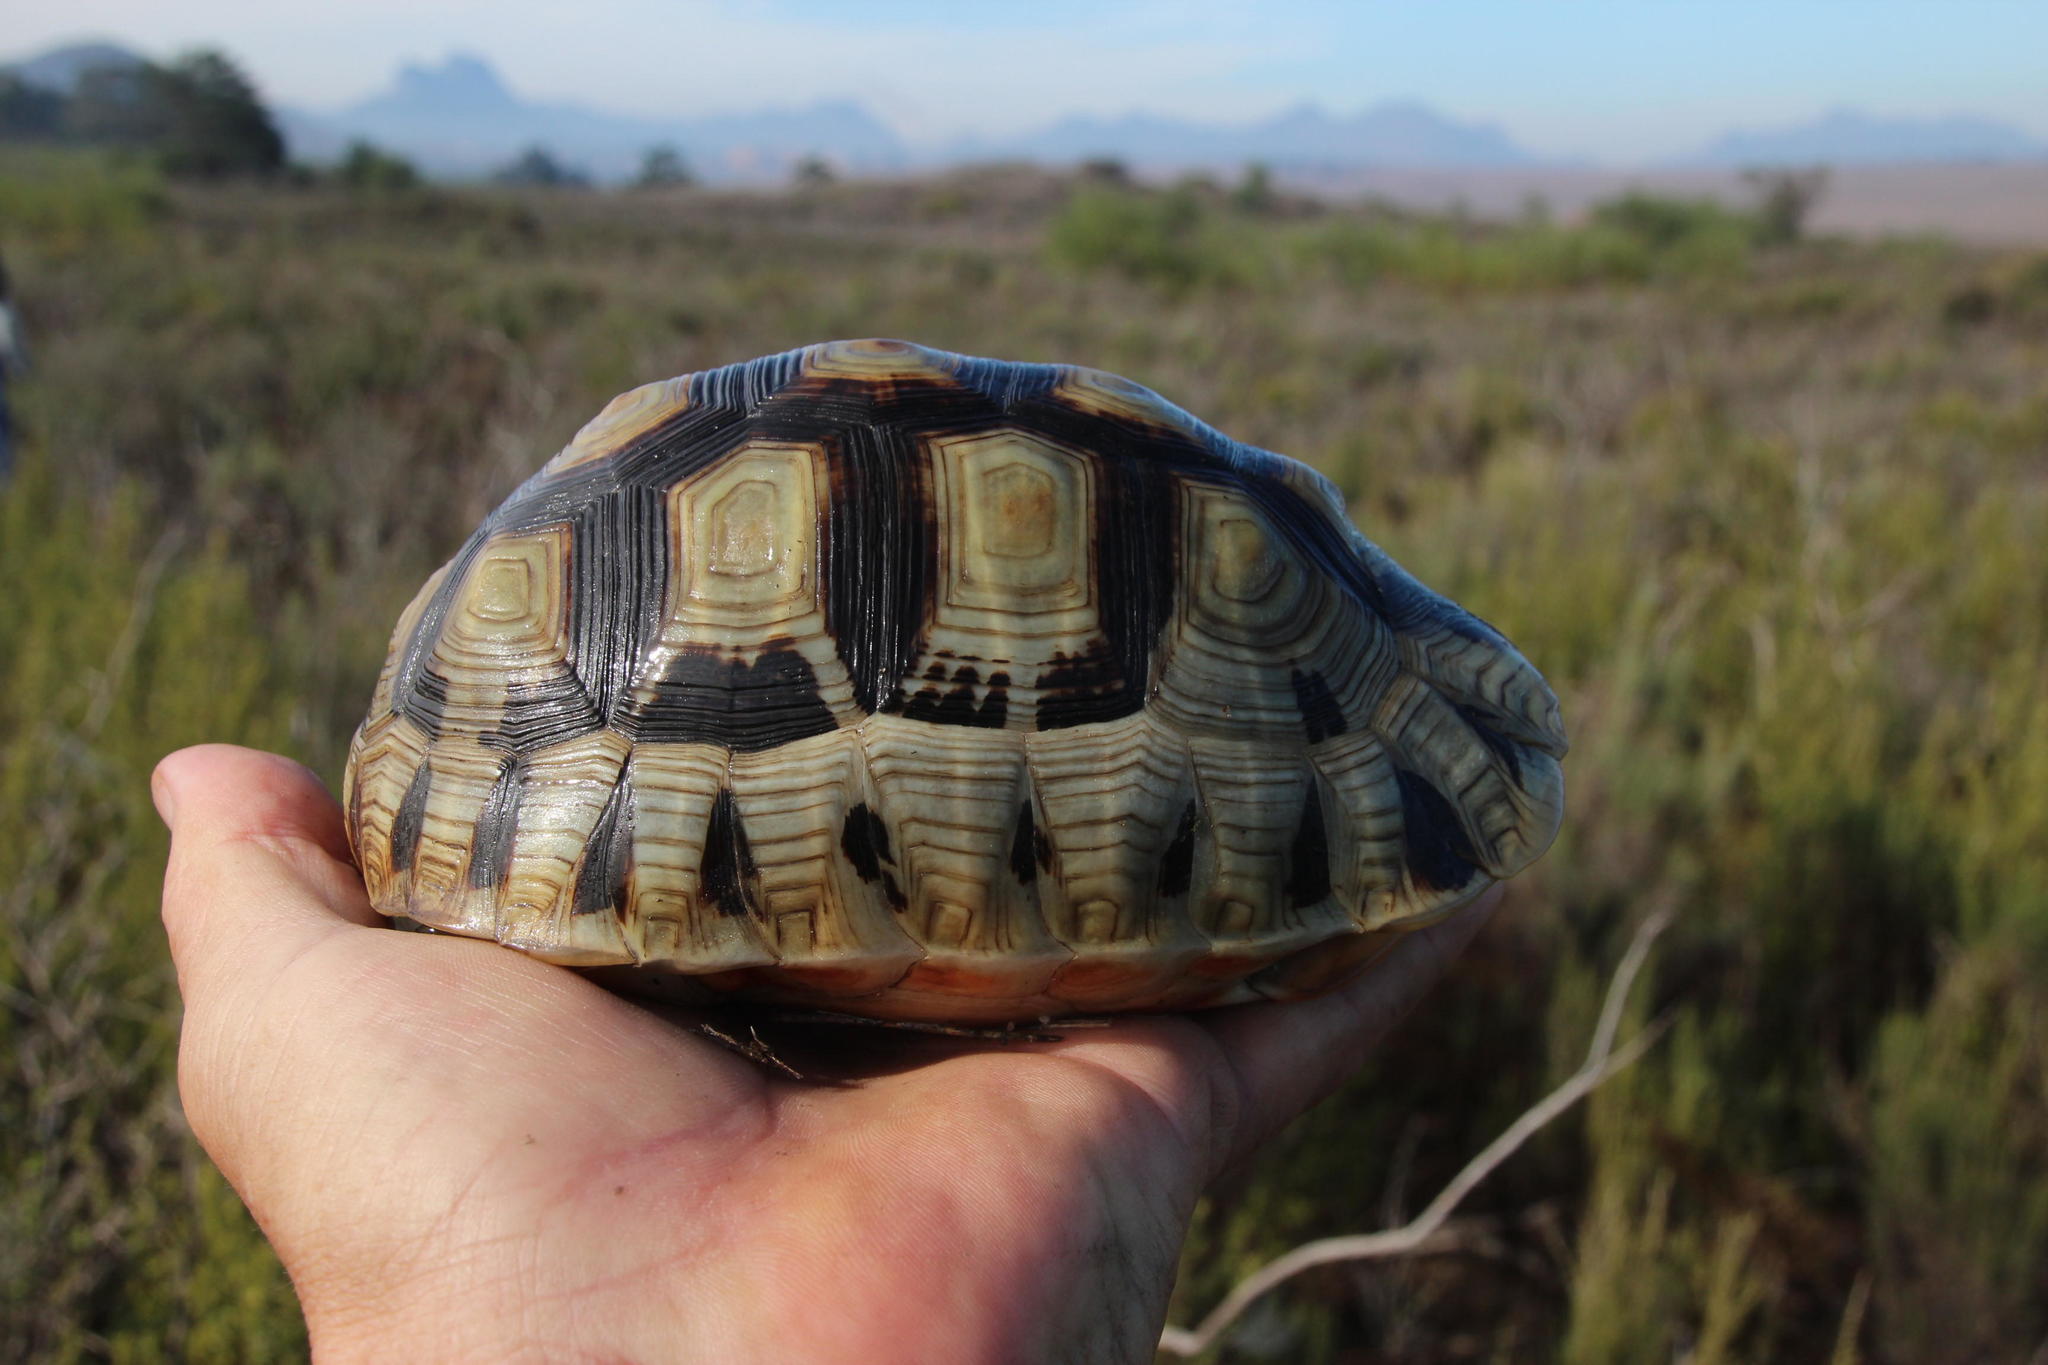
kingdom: Animalia
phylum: Chordata
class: Testudines
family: Testudinidae
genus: Chersina
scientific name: Chersina angulata
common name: South african bowsprit tortoise
